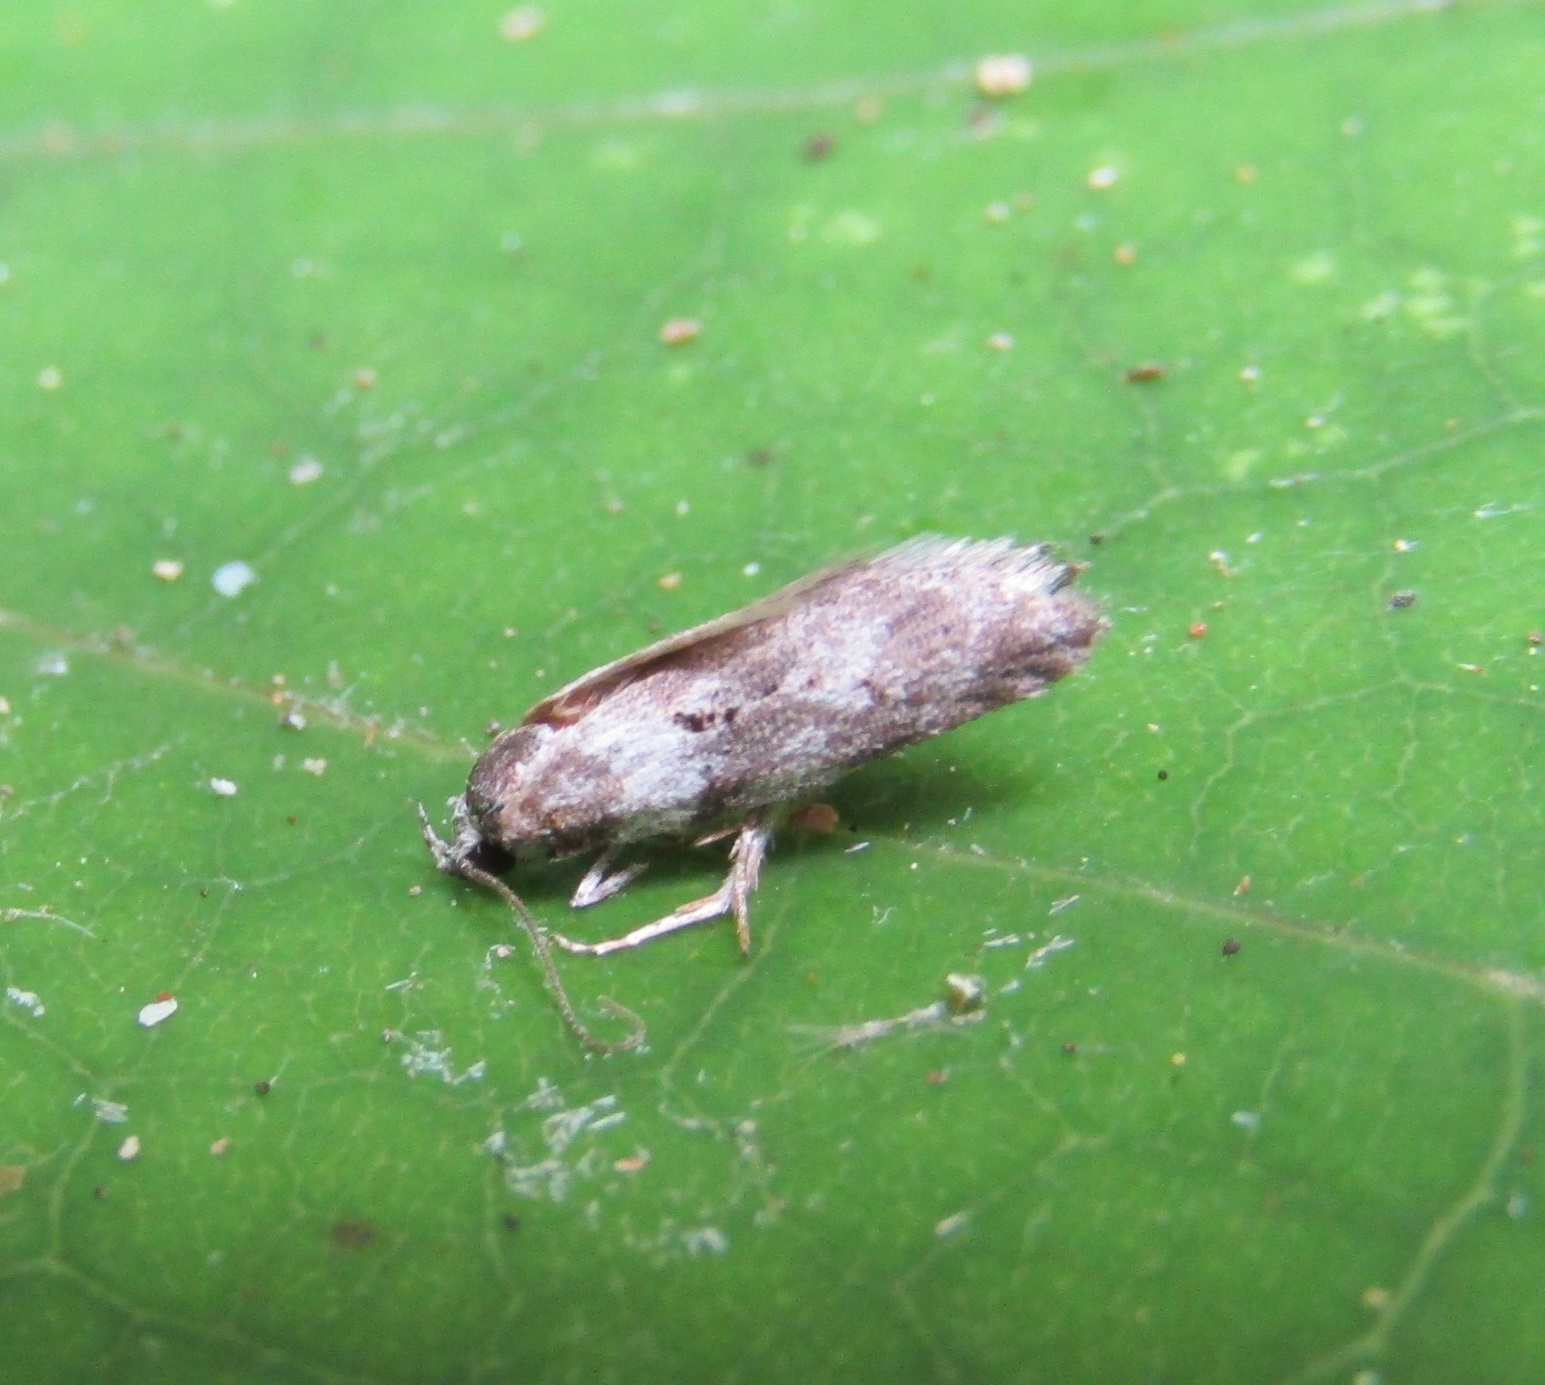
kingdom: Animalia
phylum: Arthropoda
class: Insecta
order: Lepidoptera
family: Oecophoridae
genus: Izatha
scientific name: Izatha convulsella
